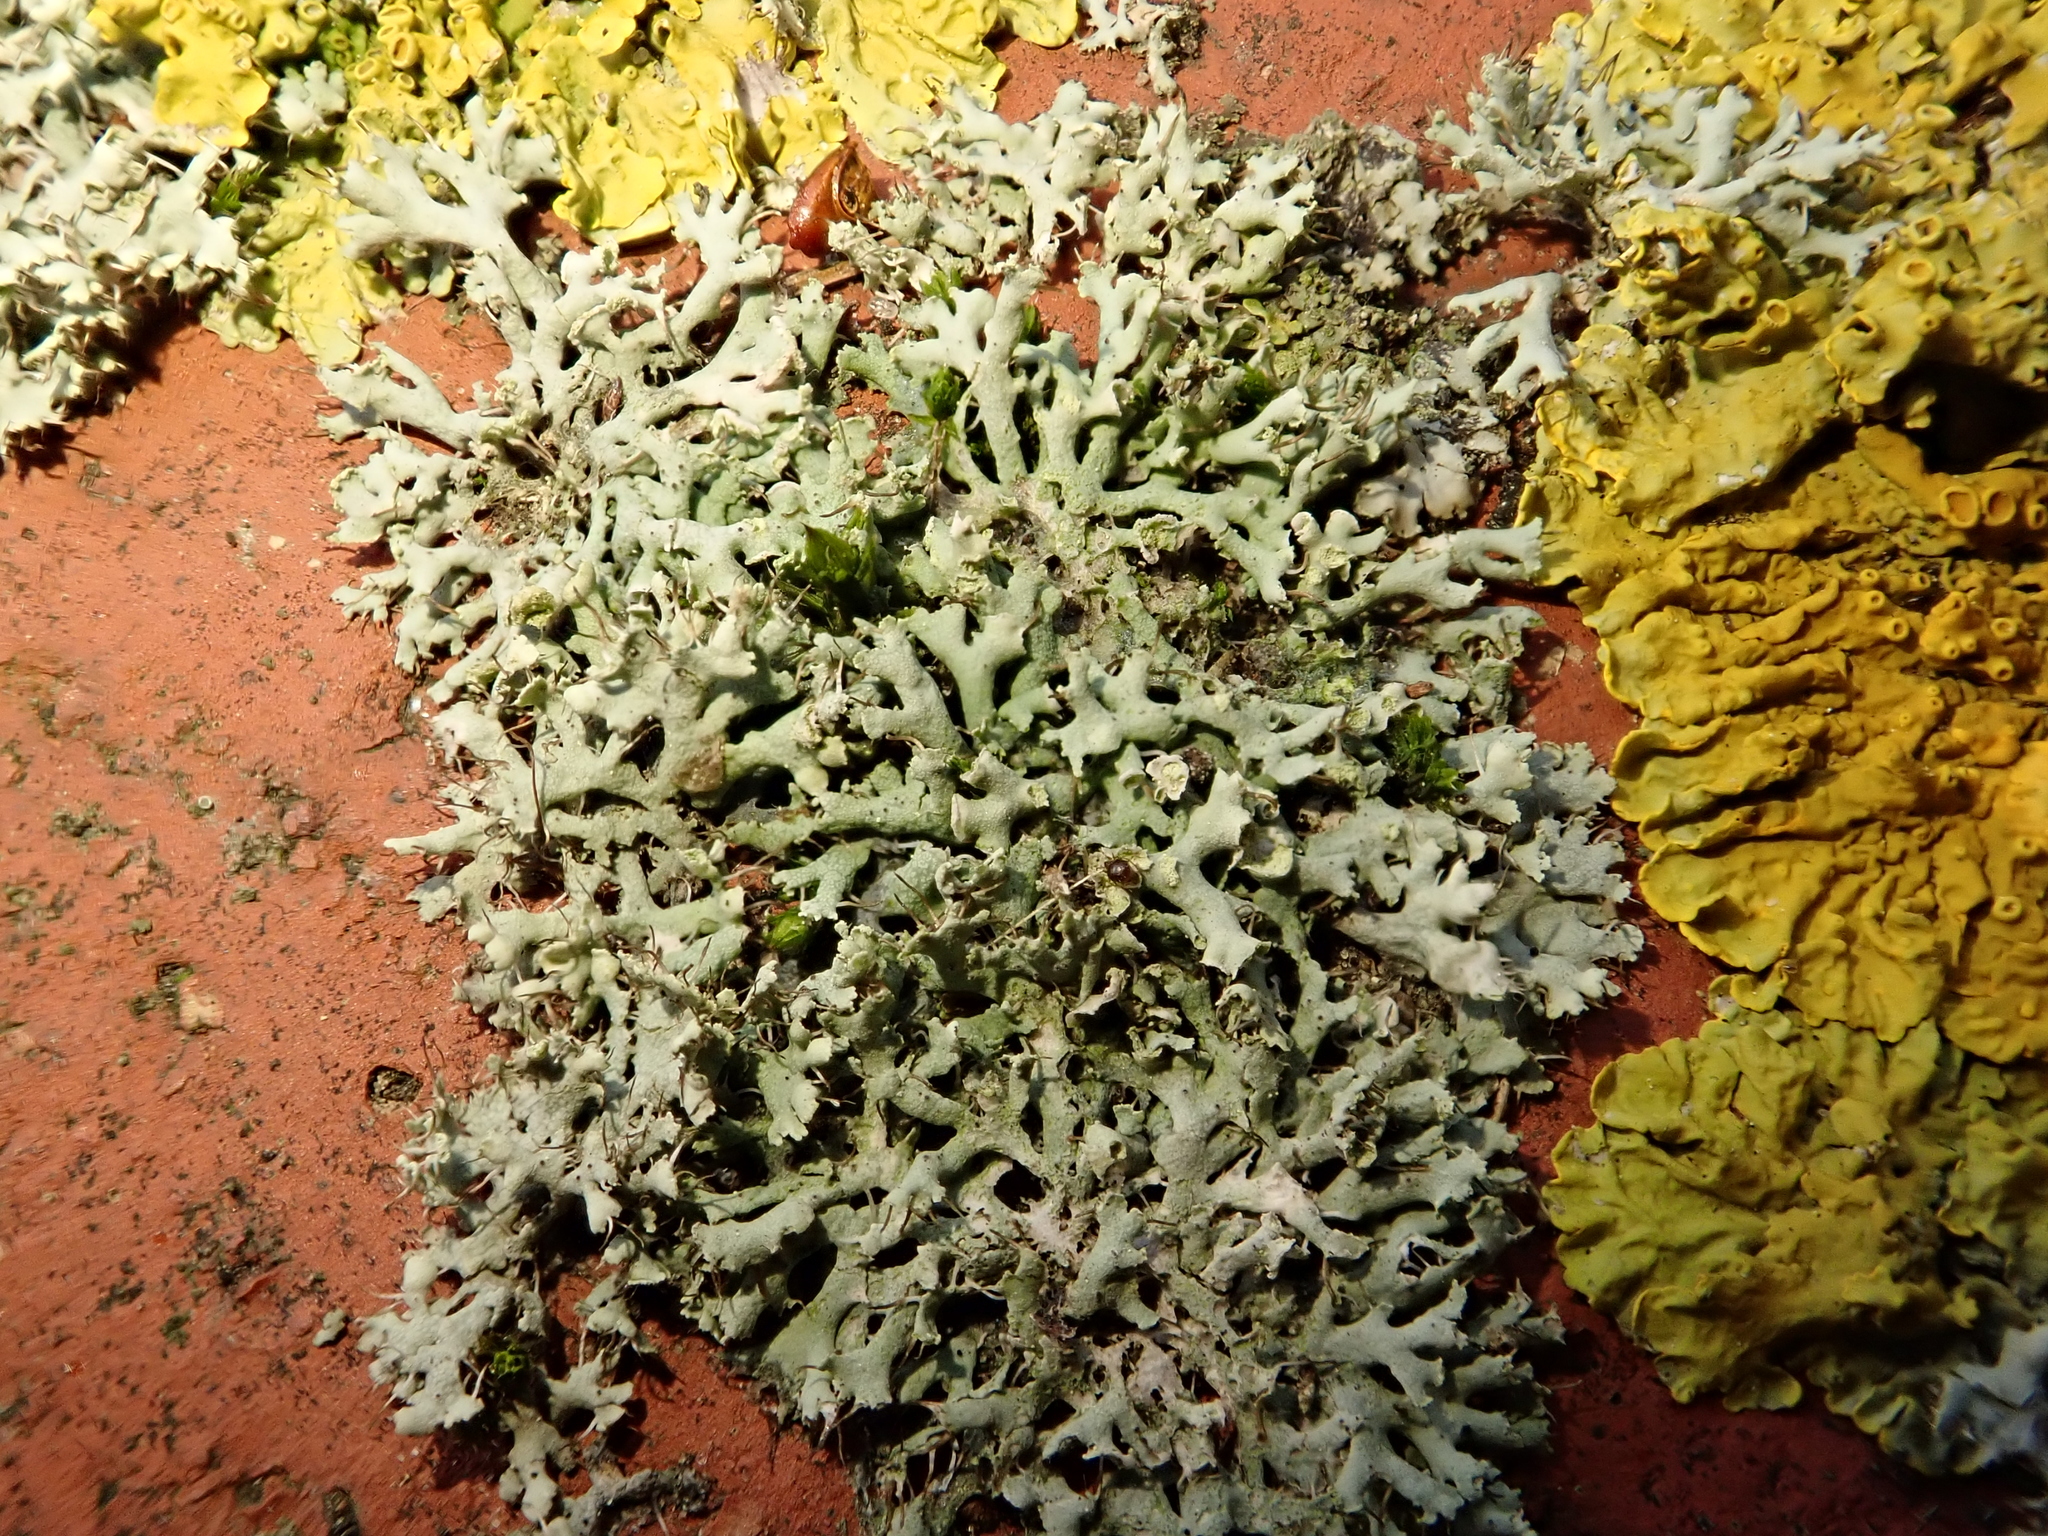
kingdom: Fungi
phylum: Ascomycota
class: Lecanoromycetes
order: Caliciales
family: Physciaceae
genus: Physcia
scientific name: Physcia tenella
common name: Fringed rosette lichen
